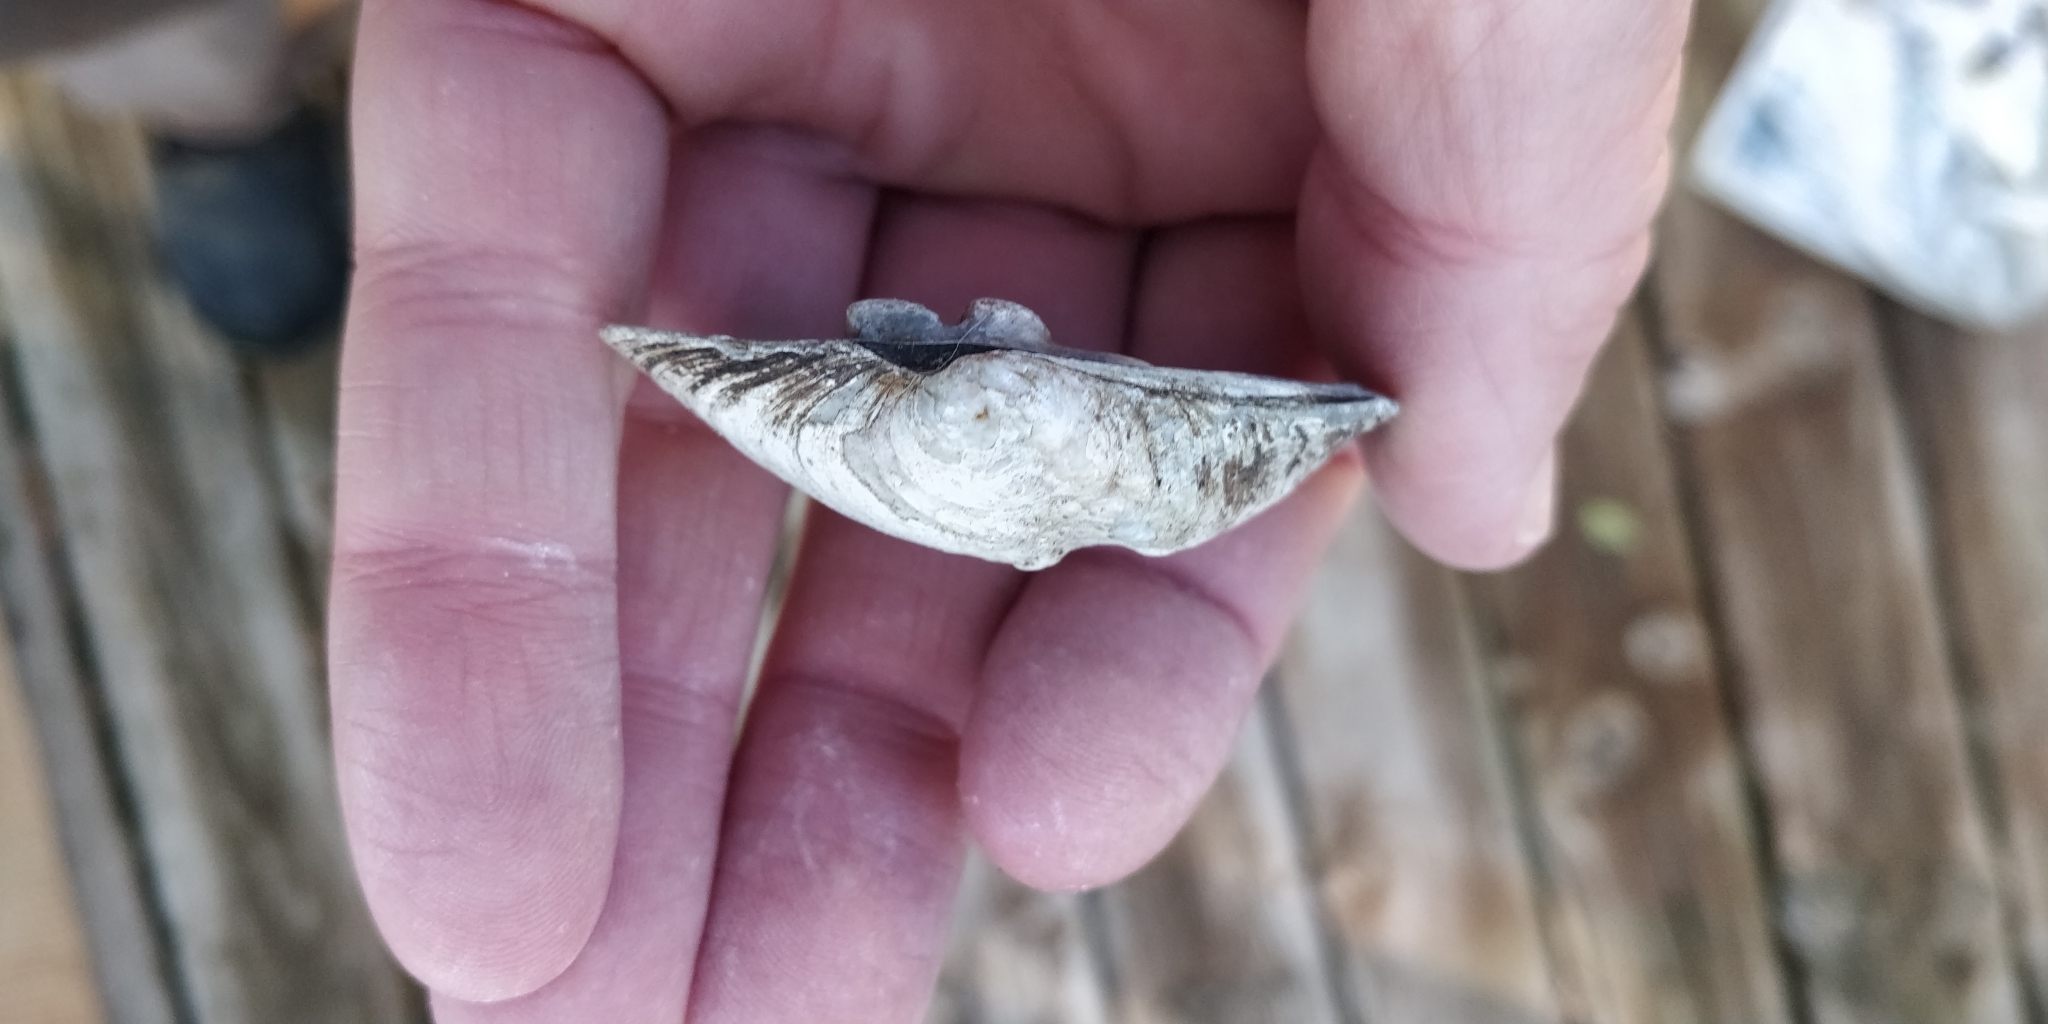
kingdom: Animalia
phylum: Mollusca
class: Bivalvia
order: Unionida
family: Unionidae
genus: Quadrula
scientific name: Quadrula quadrula
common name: Mapleleaf
